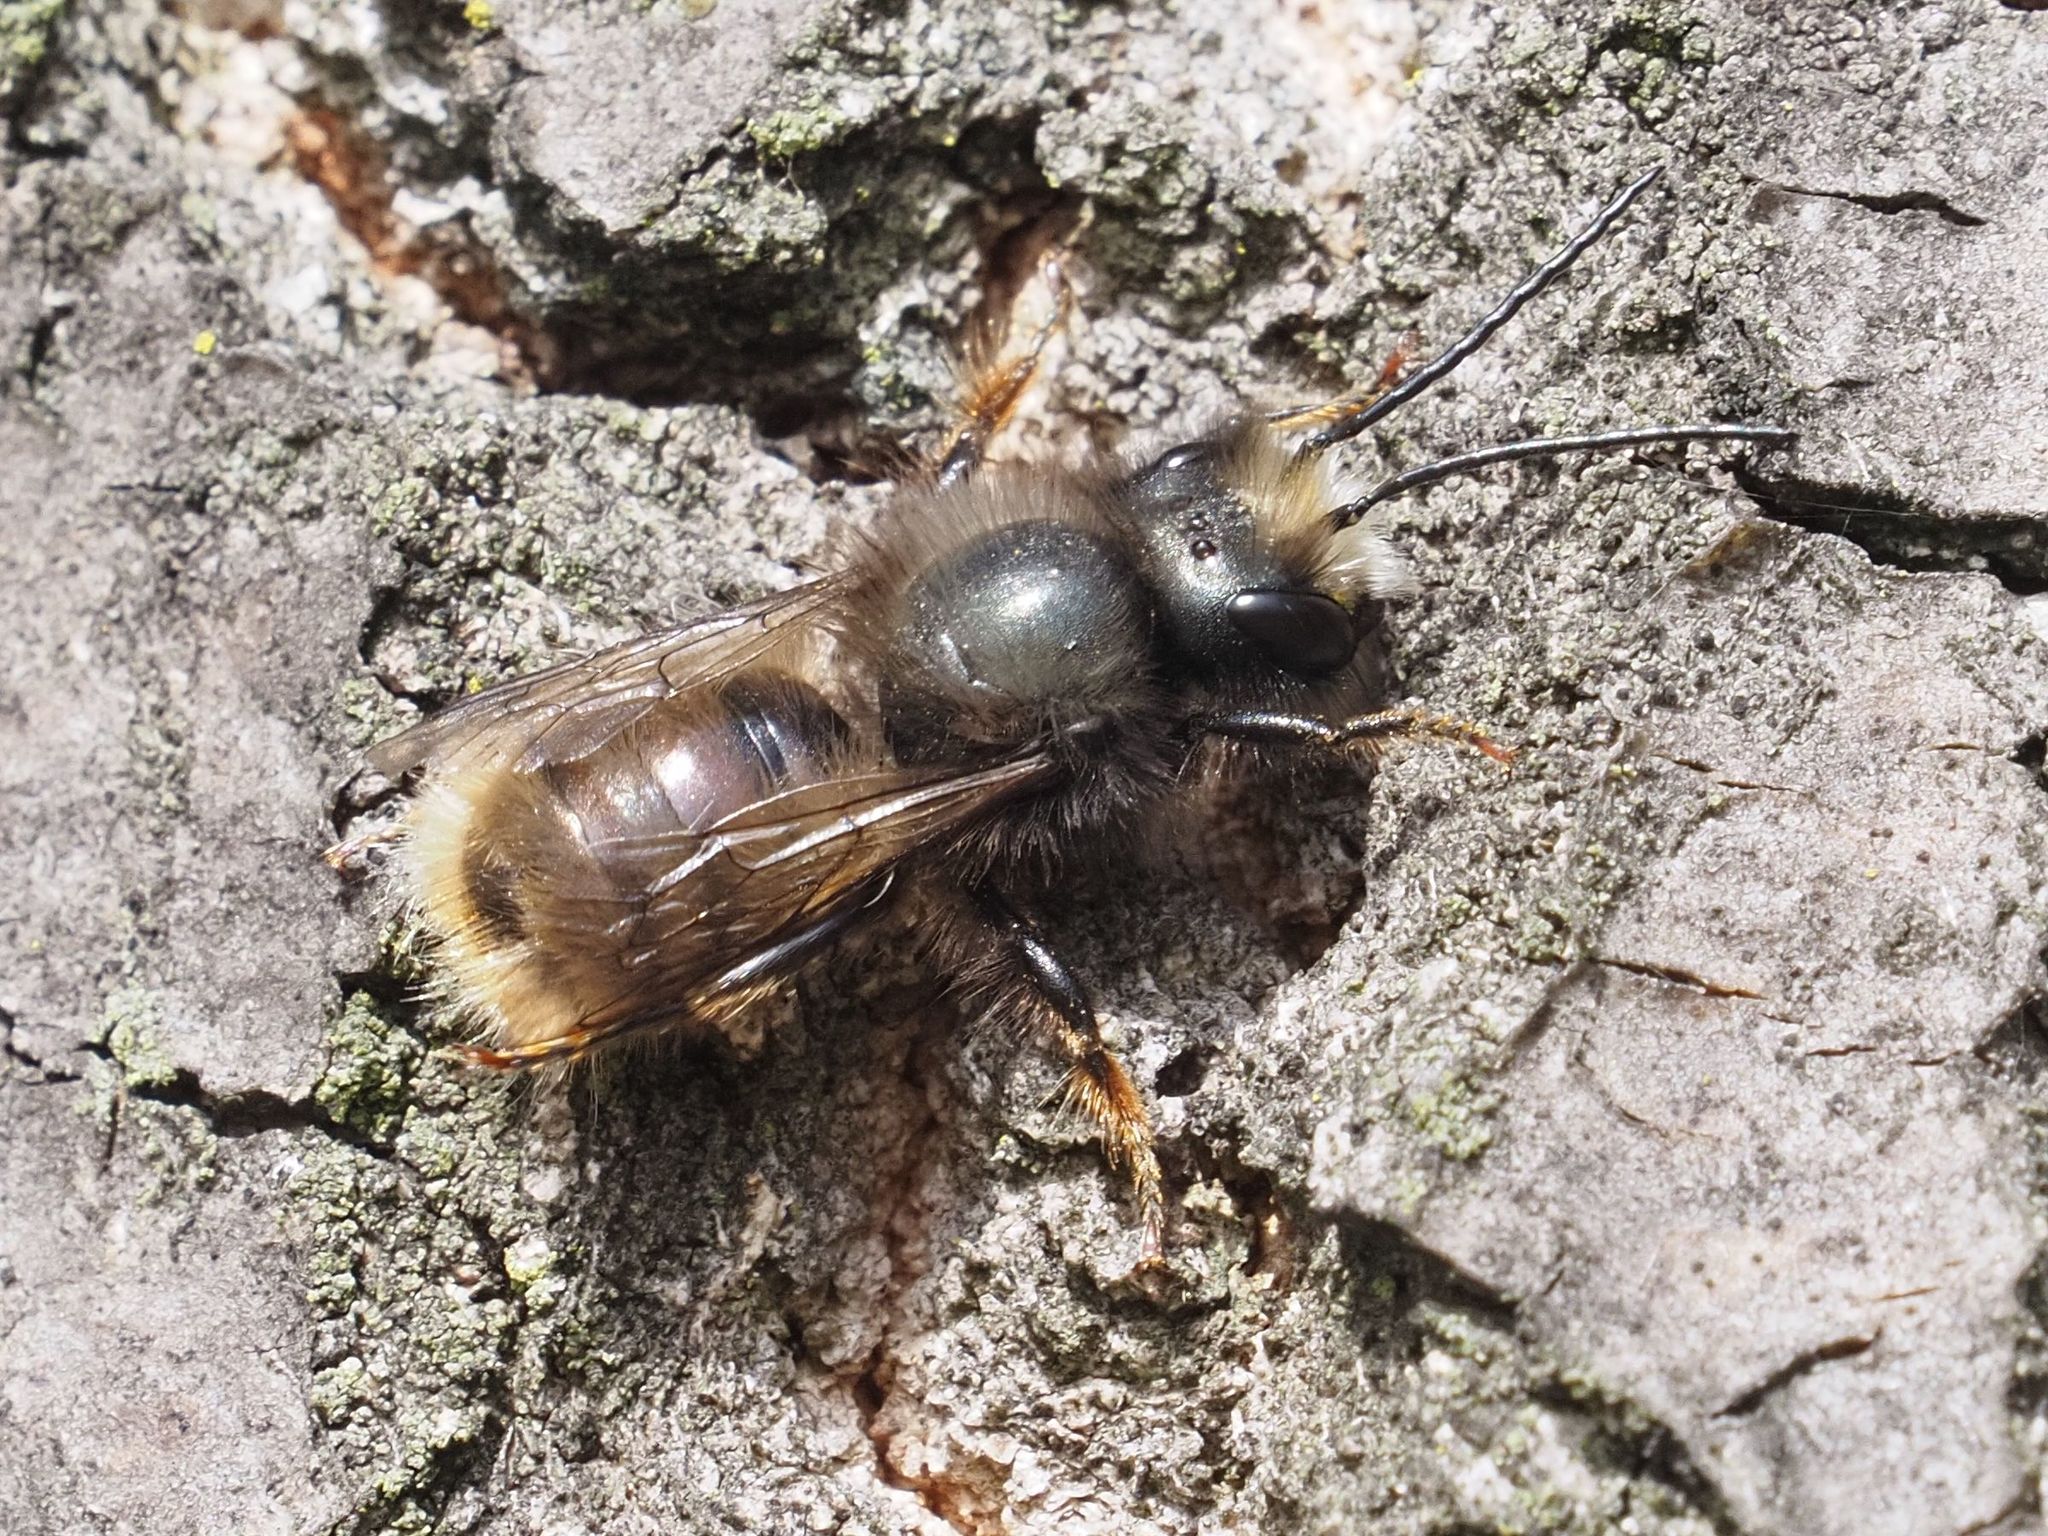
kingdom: Animalia
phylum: Arthropoda
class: Insecta
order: Hymenoptera
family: Megachilidae
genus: Osmia
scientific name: Osmia cornuta
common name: Mason bee
